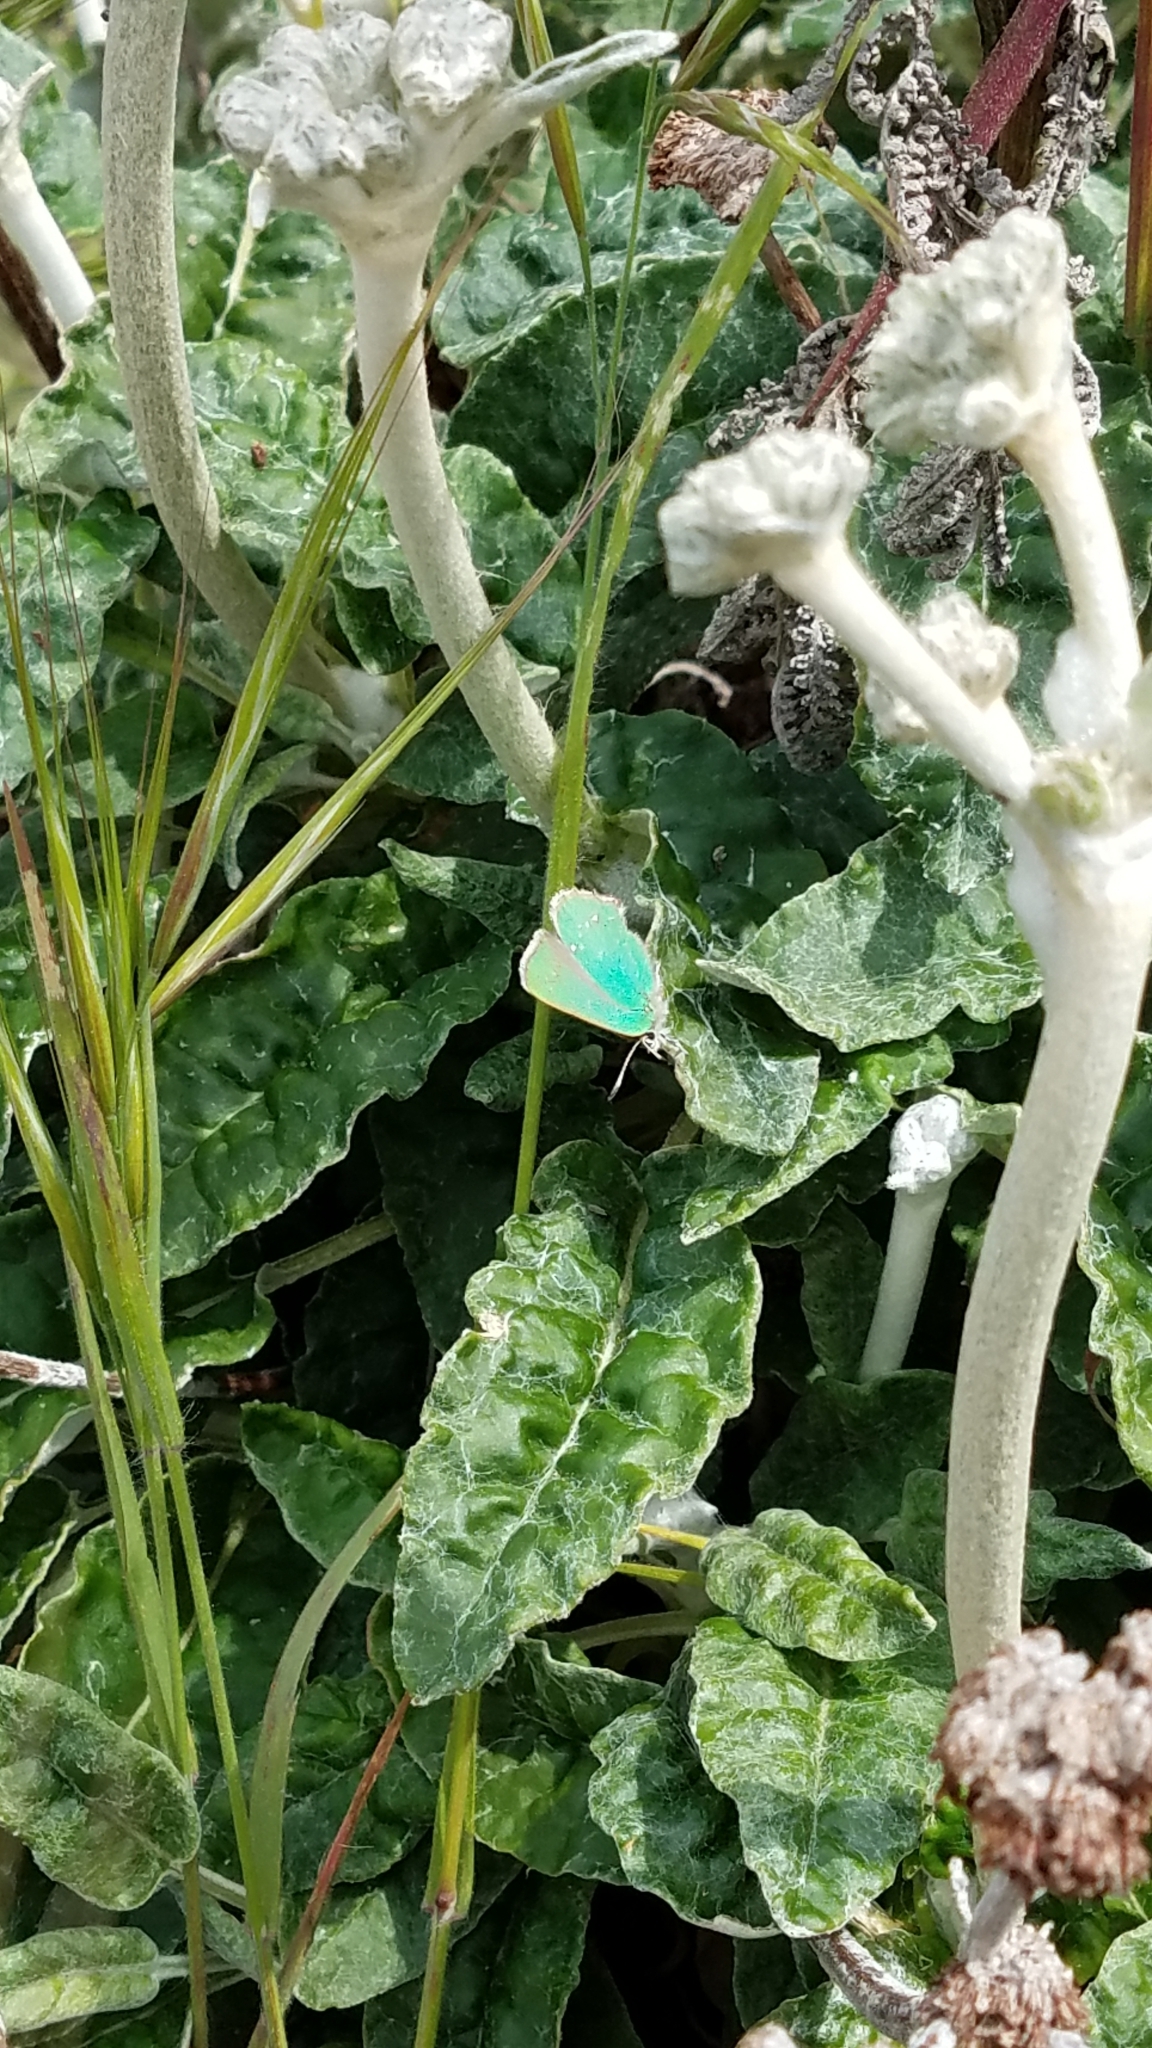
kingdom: Animalia
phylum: Arthropoda
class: Insecta
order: Lepidoptera
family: Lycaenidae
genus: Callophrys
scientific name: Callophrys viridis
